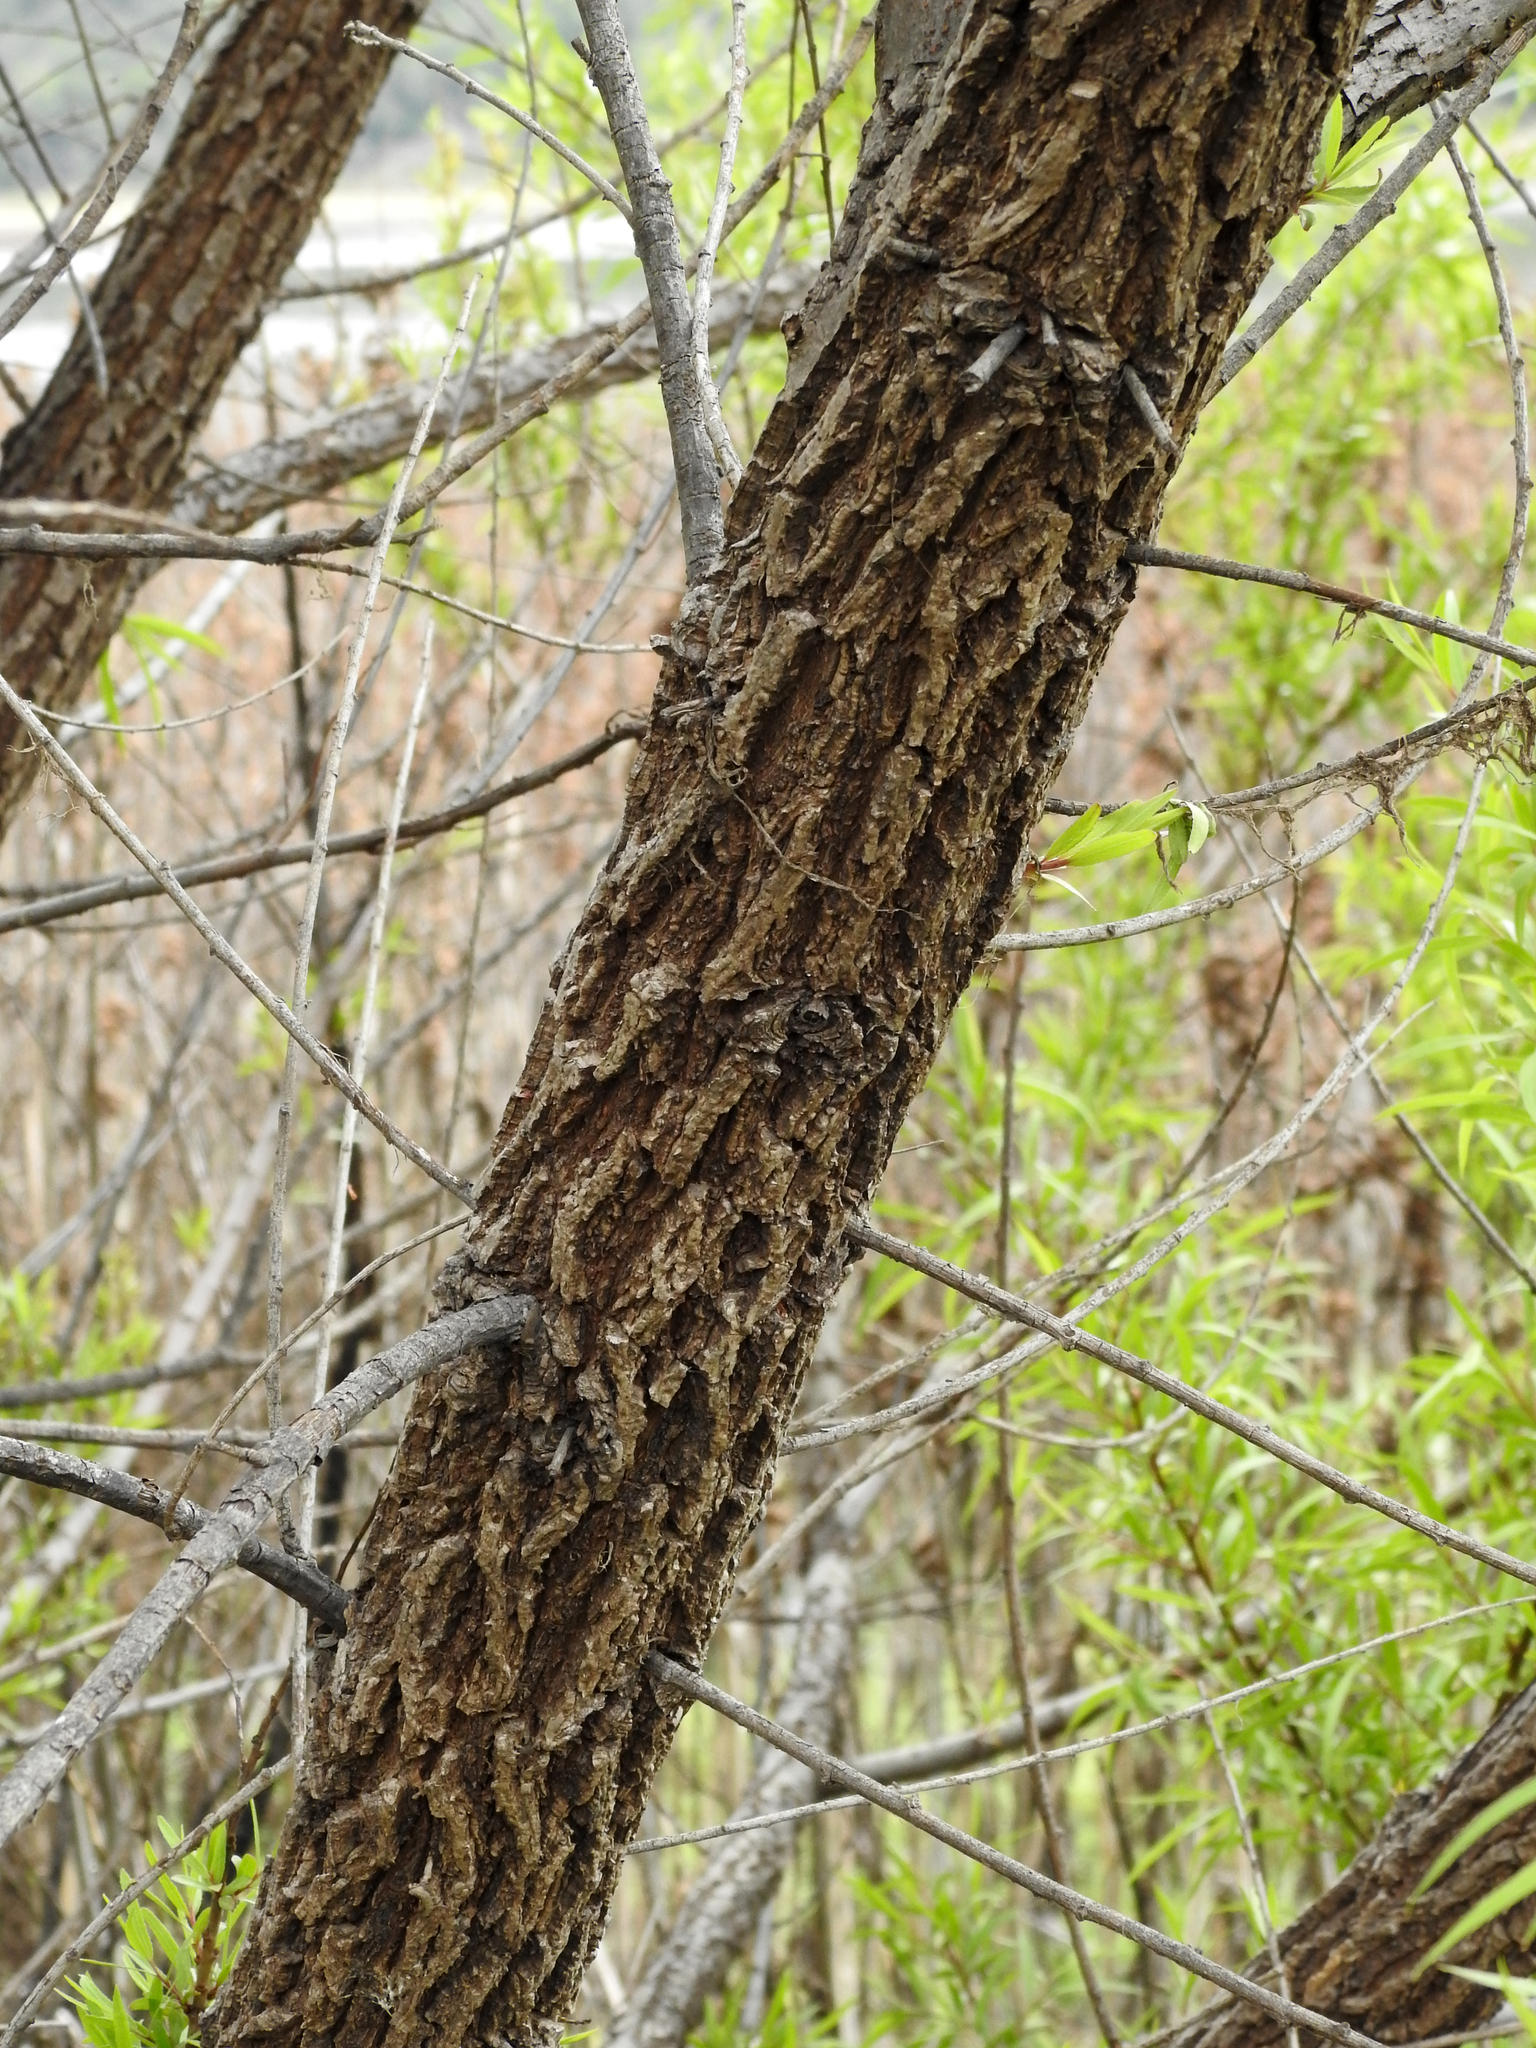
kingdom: Plantae
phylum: Tracheophyta
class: Magnoliopsida
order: Malpighiales
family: Salicaceae
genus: Salix
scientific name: Salix humboldtiana
